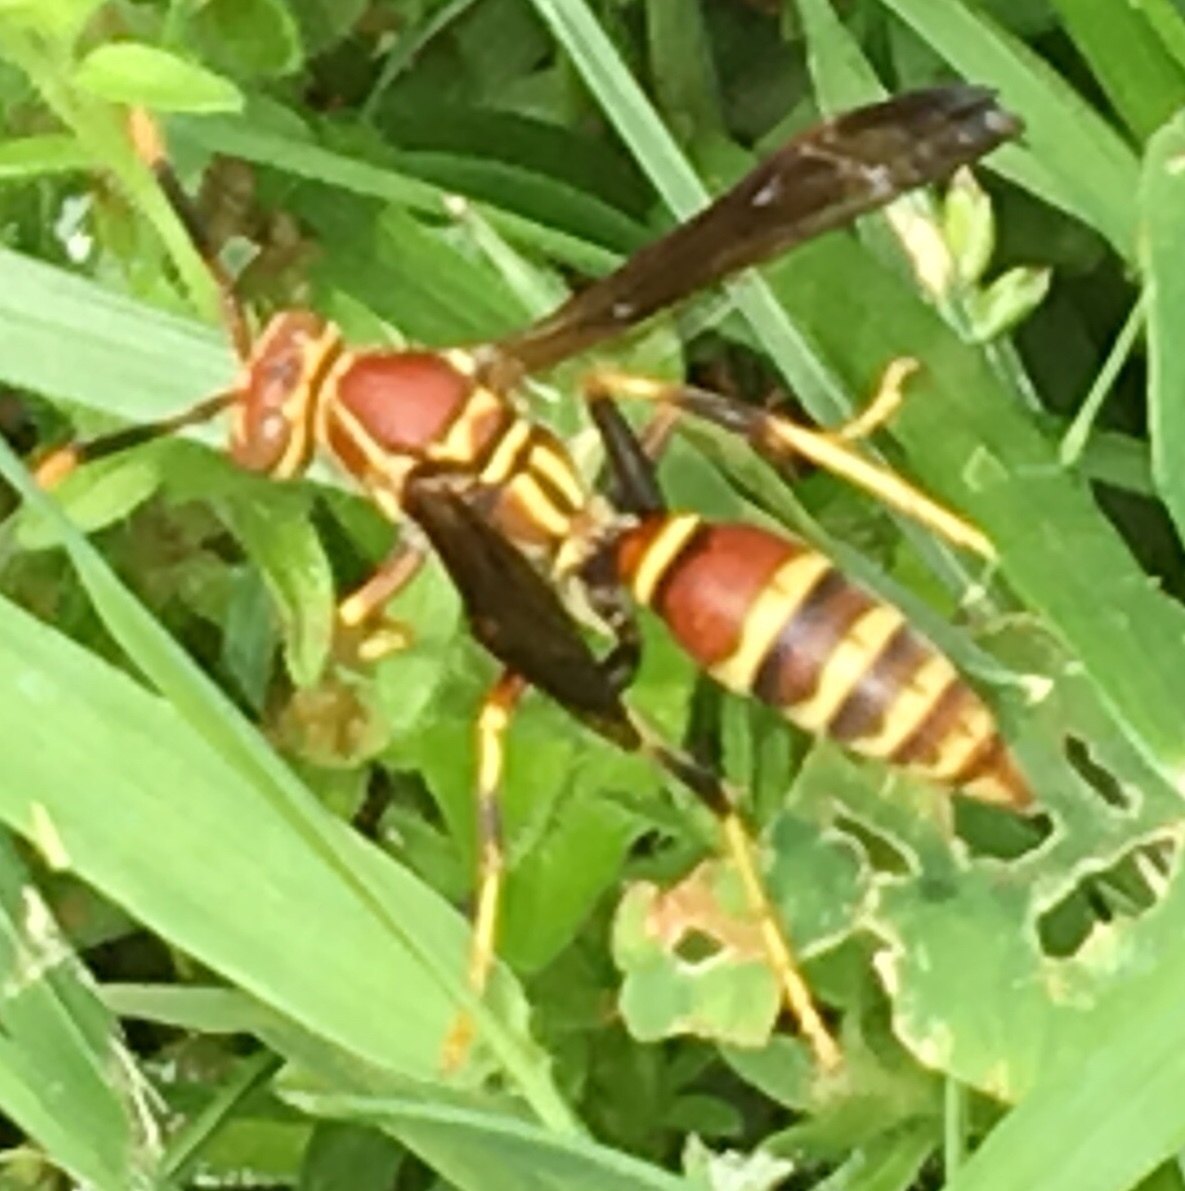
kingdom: Animalia
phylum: Arthropoda
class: Insecta
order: Hymenoptera
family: Eumenidae
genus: Polistes
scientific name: Polistes exclamans
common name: Paper wasp
